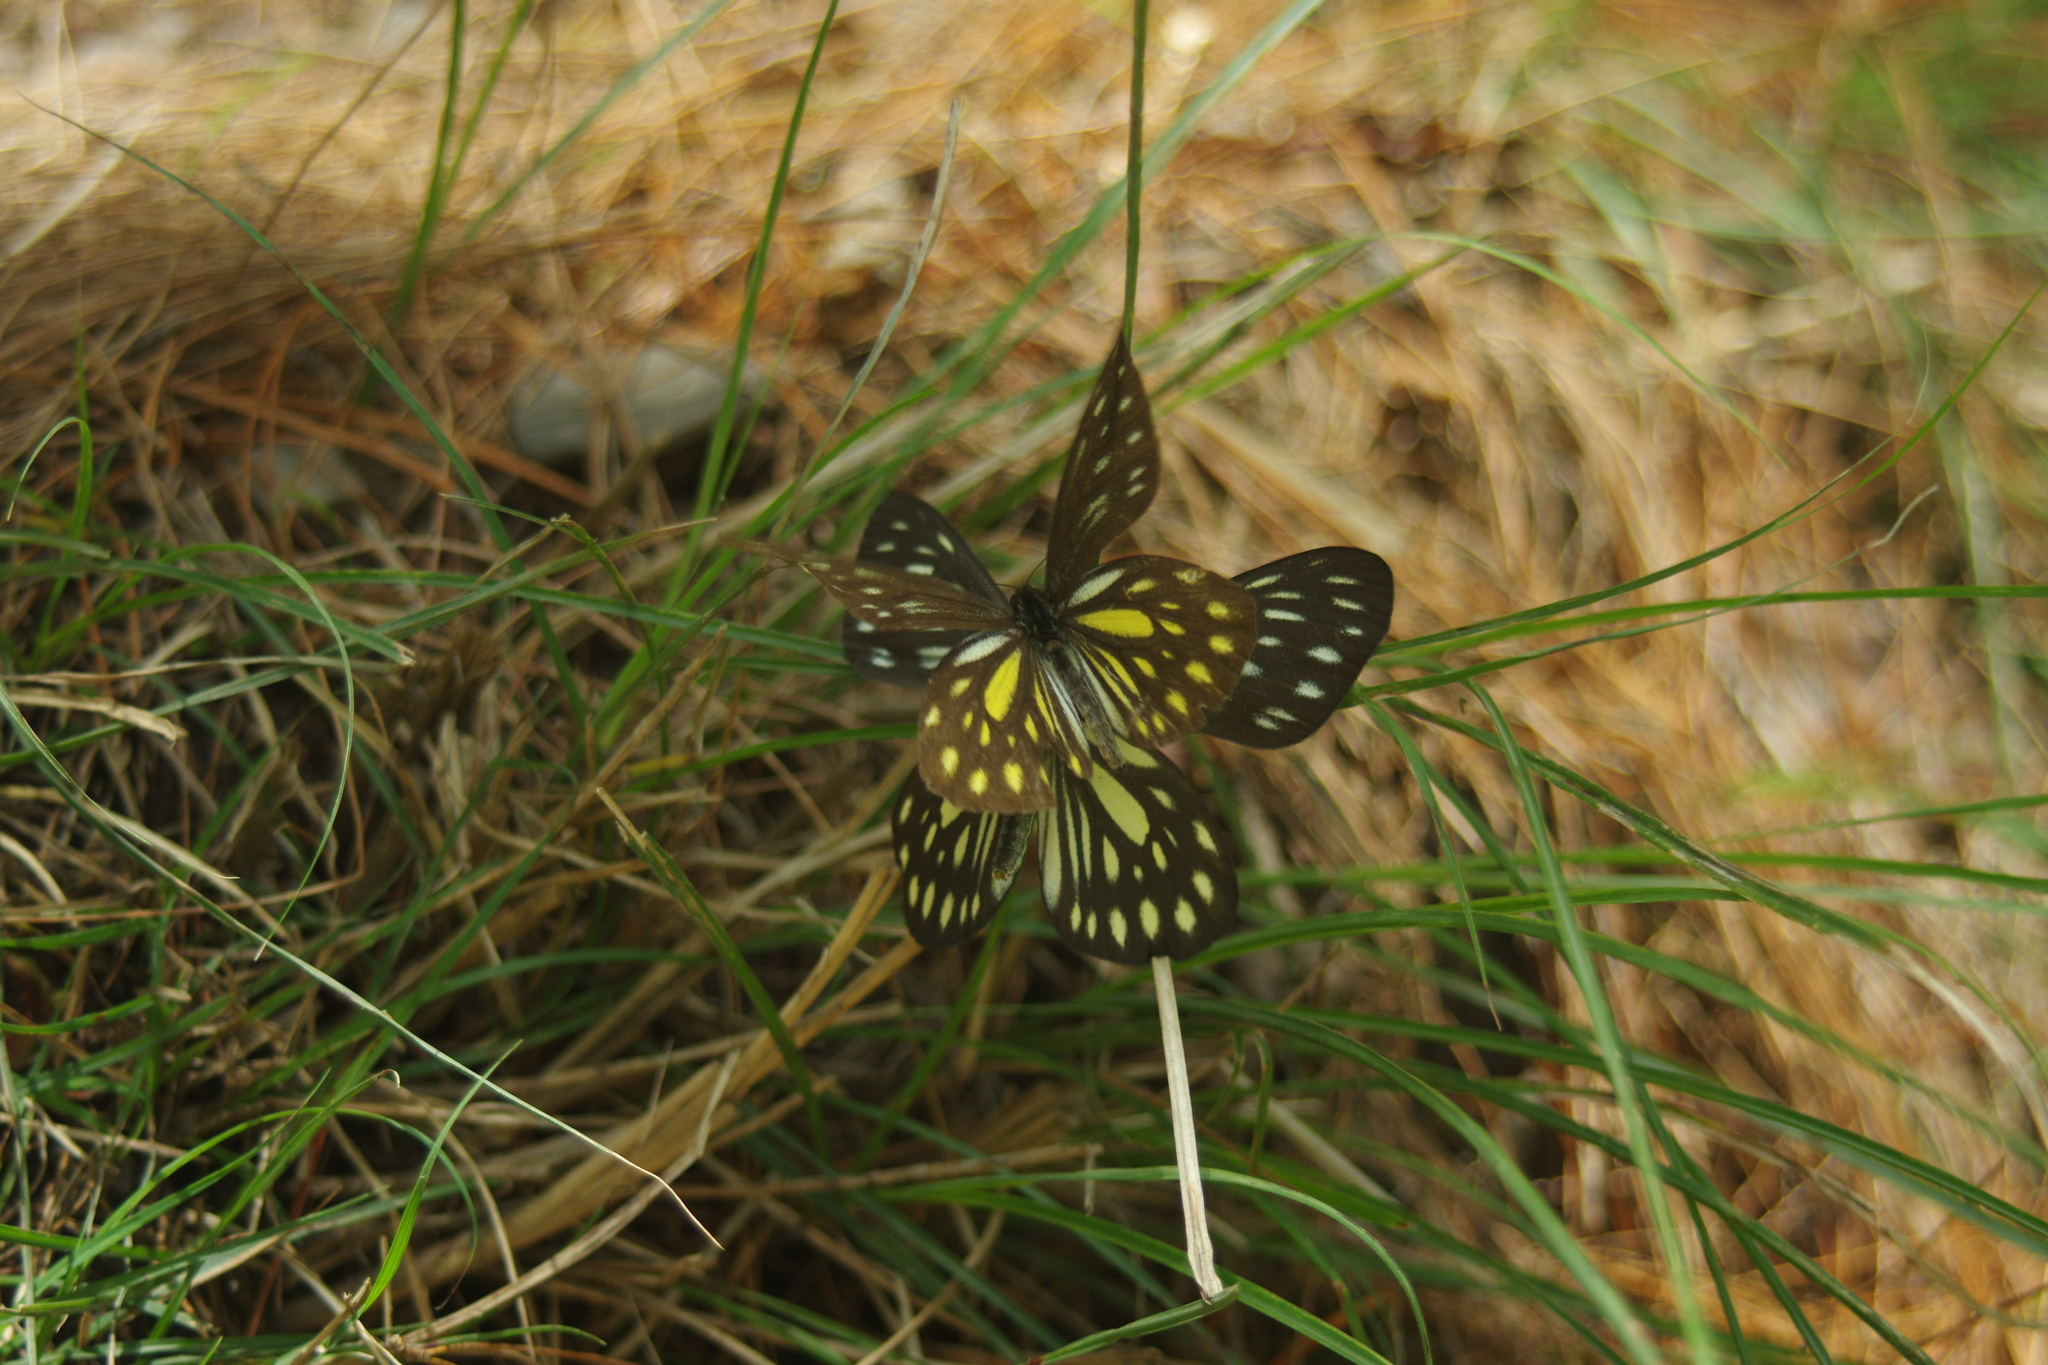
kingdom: Animalia
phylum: Arthropoda
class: Insecta
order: Lepidoptera
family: Pieridae
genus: Aporia
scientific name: Aporia agathon
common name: Great blackvein
